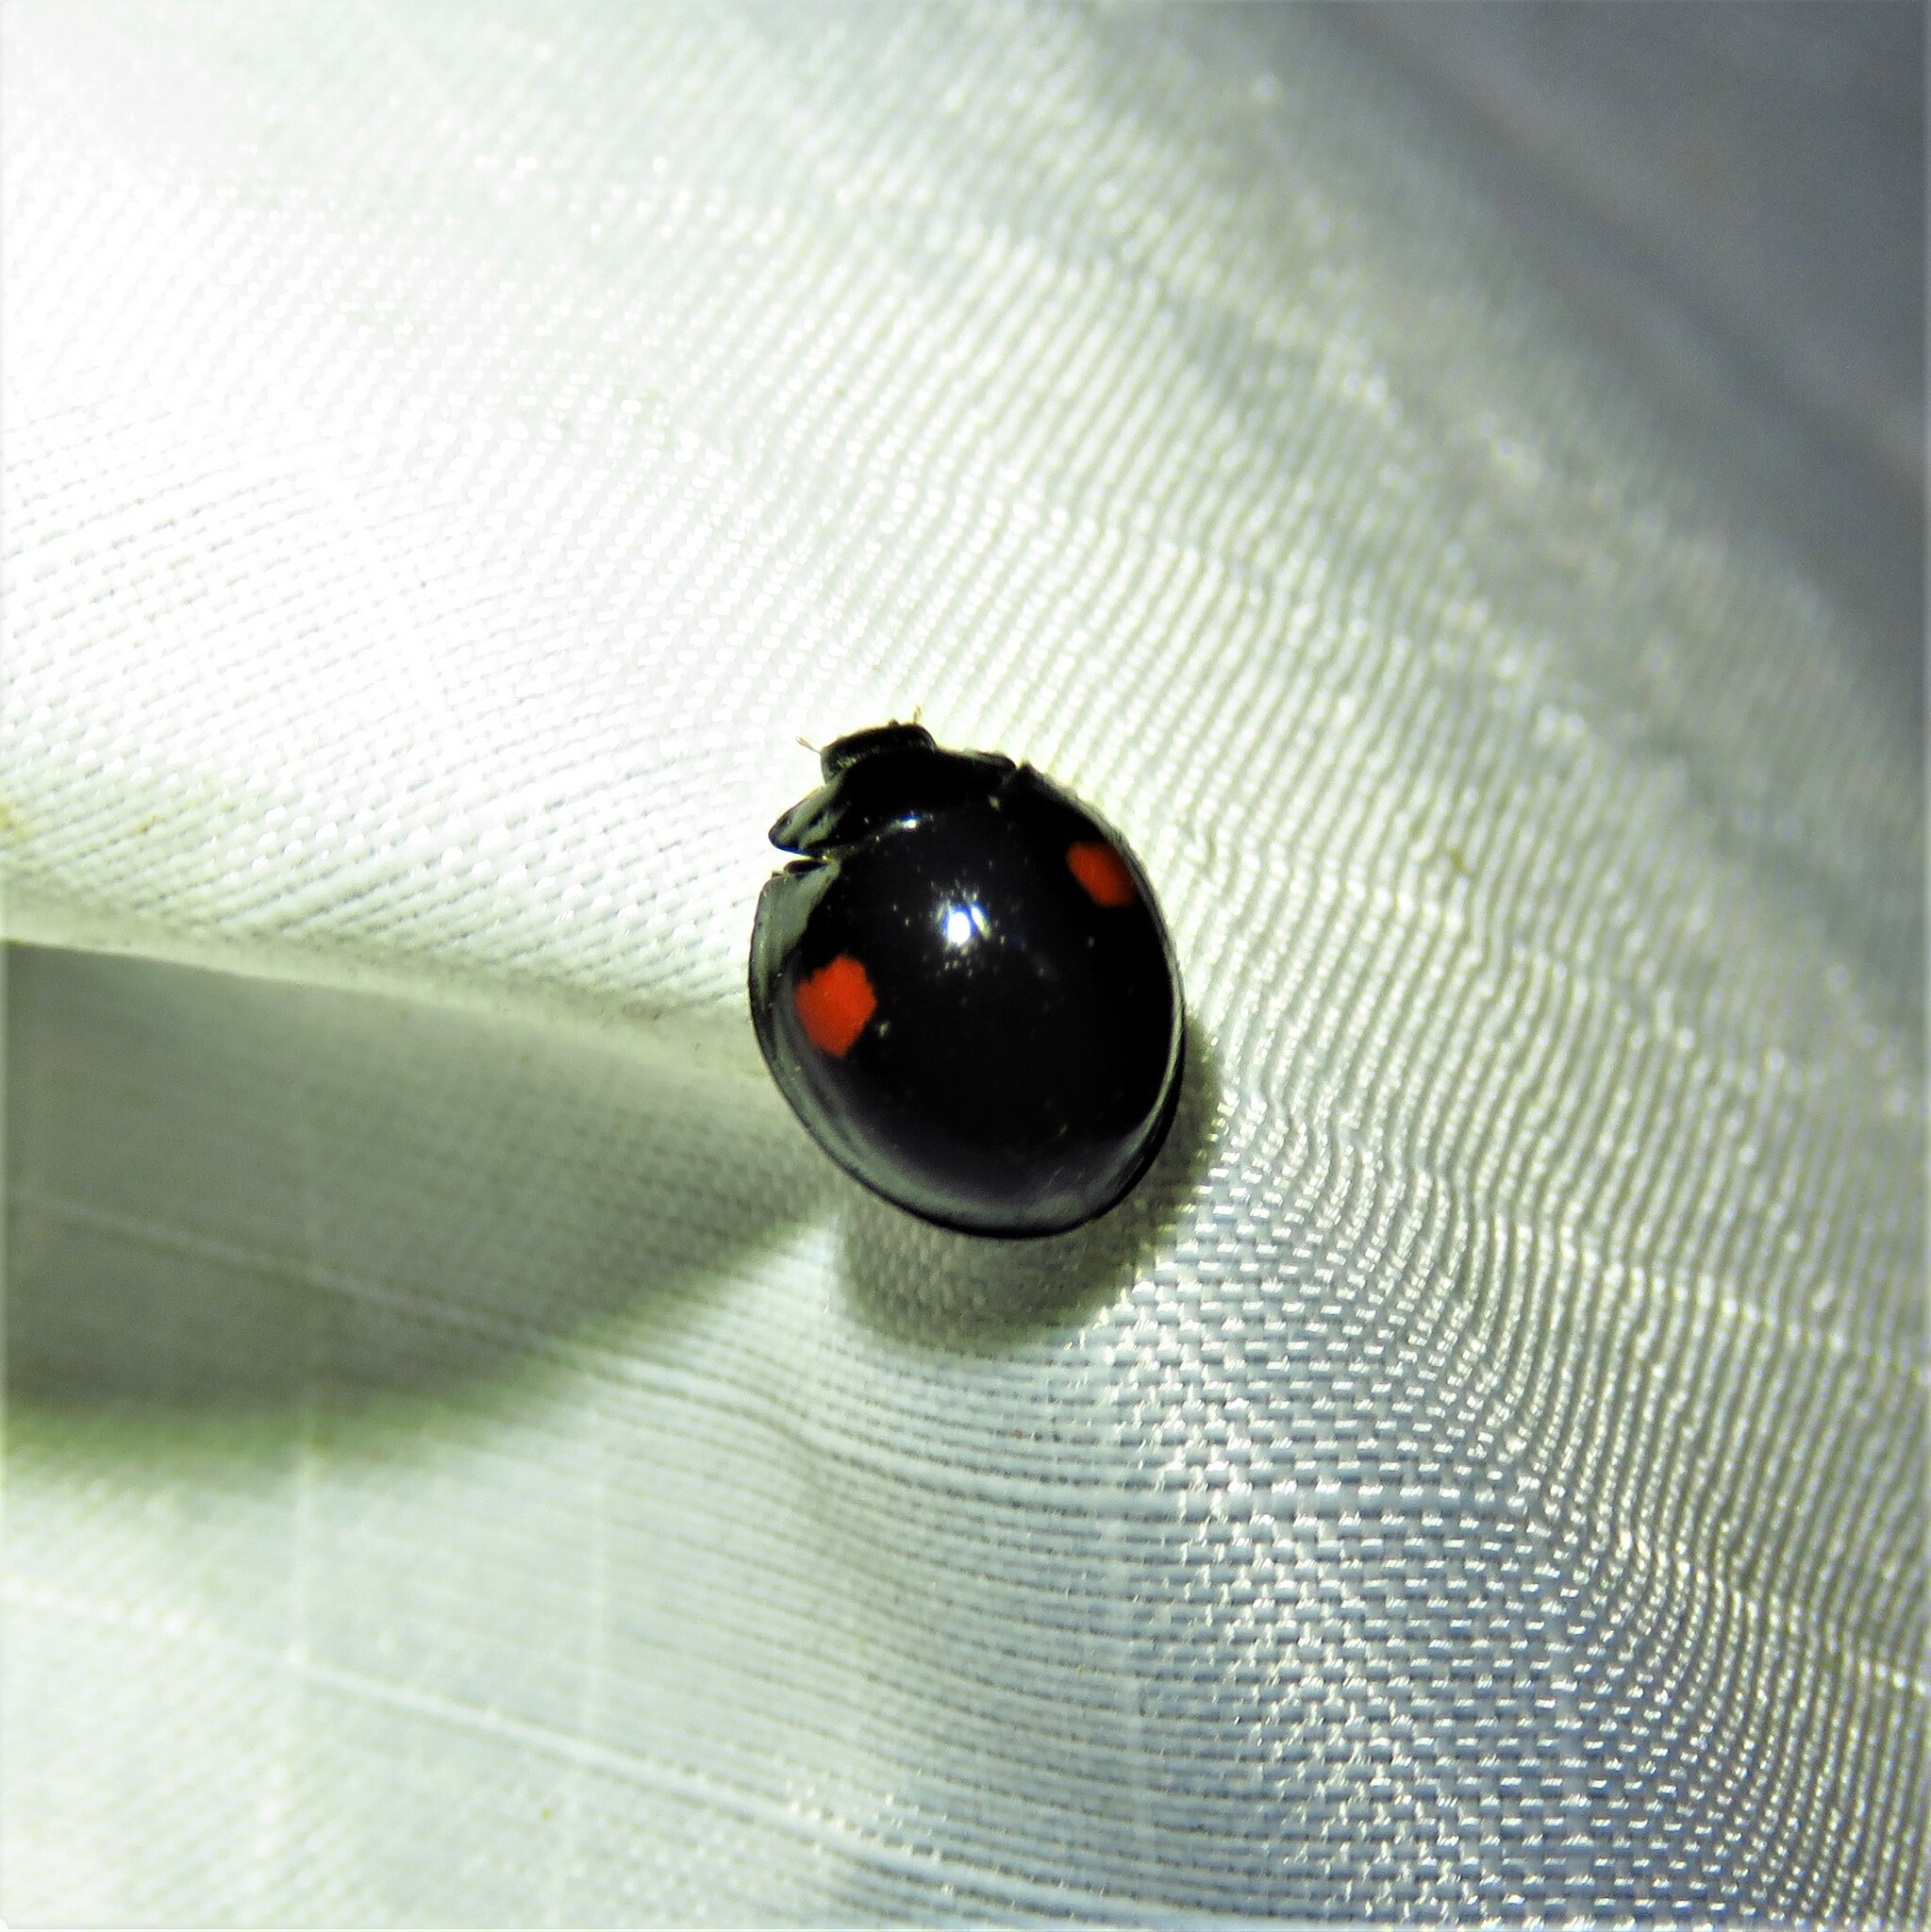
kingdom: Animalia
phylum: Arthropoda
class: Insecta
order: Coleoptera
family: Coccinellidae
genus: Chilocorus
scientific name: Chilocorus stigma
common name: Twicestabbed lady beetle
